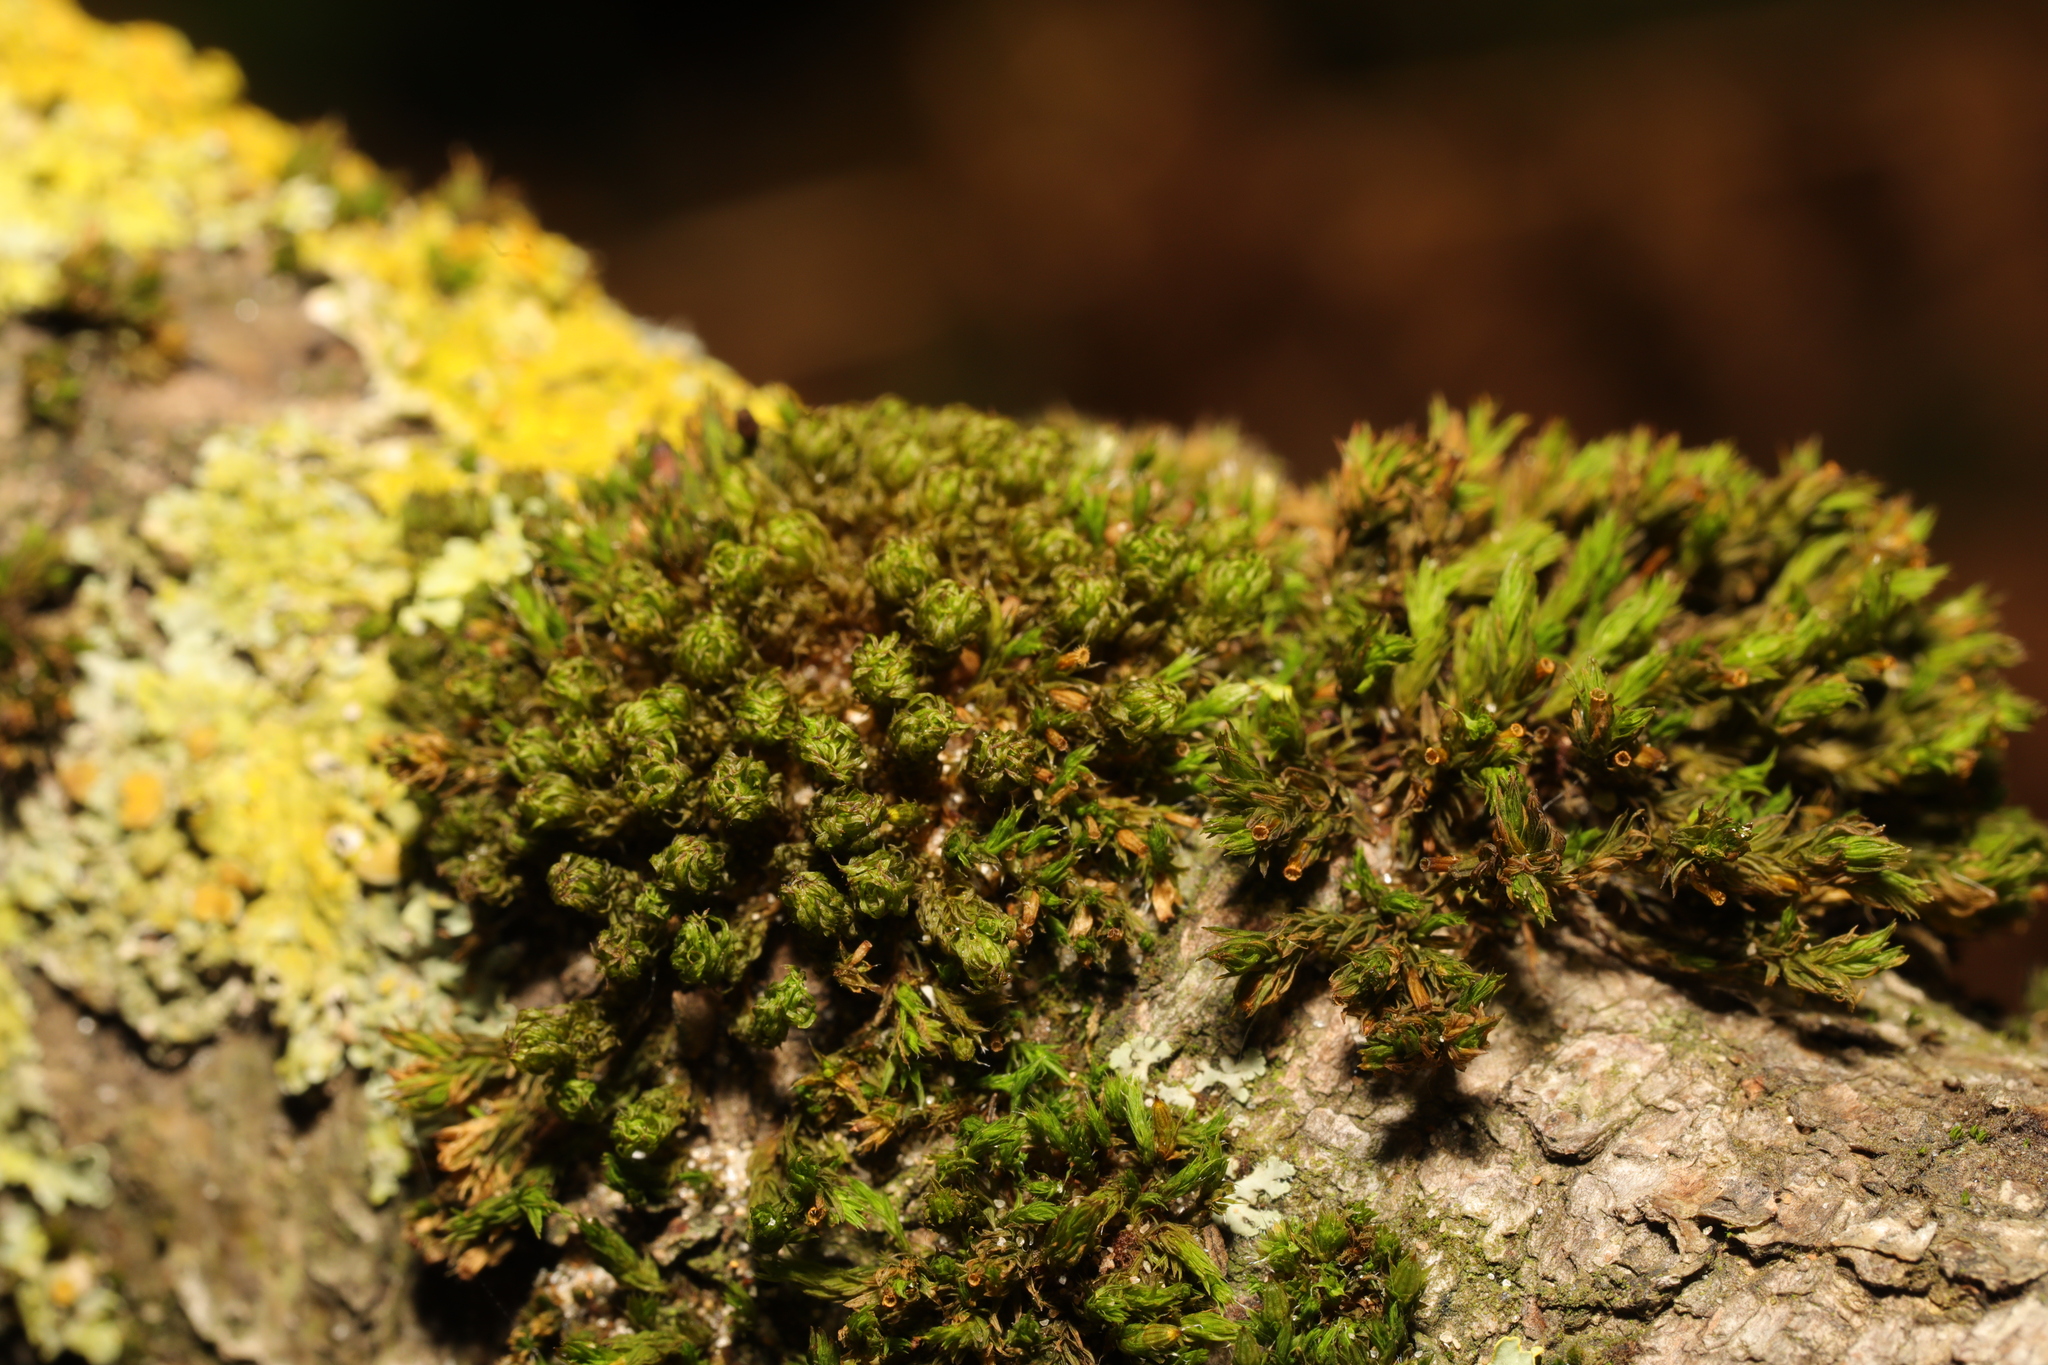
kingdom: Plantae
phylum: Bryophyta
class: Bryopsida
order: Orthotrichales
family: Orthotrichaceae
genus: Lewinskya
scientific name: Lewinskya affinis
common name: Wood bristle-moss
